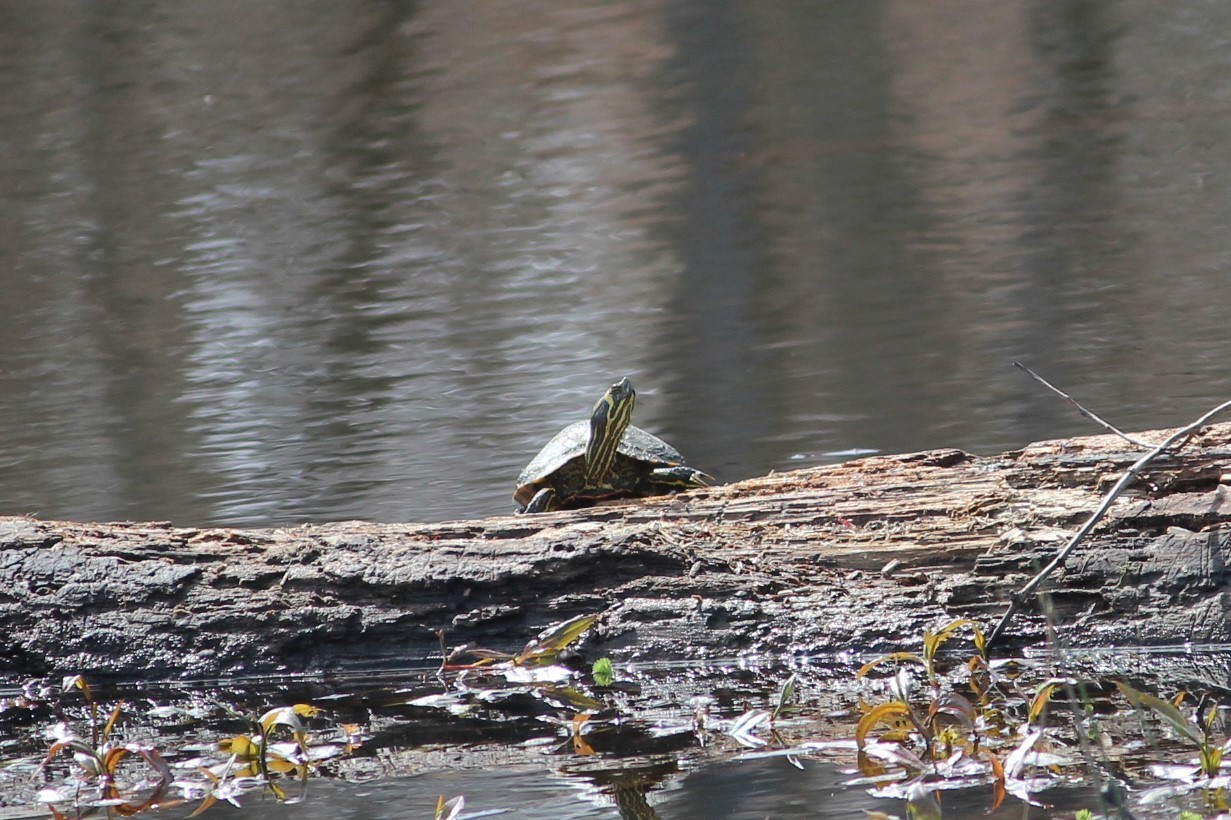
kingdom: Animalia
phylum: Chordata
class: Testudines
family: Emydidae
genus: Trachemys
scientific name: Trachemys scripta
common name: Slider
